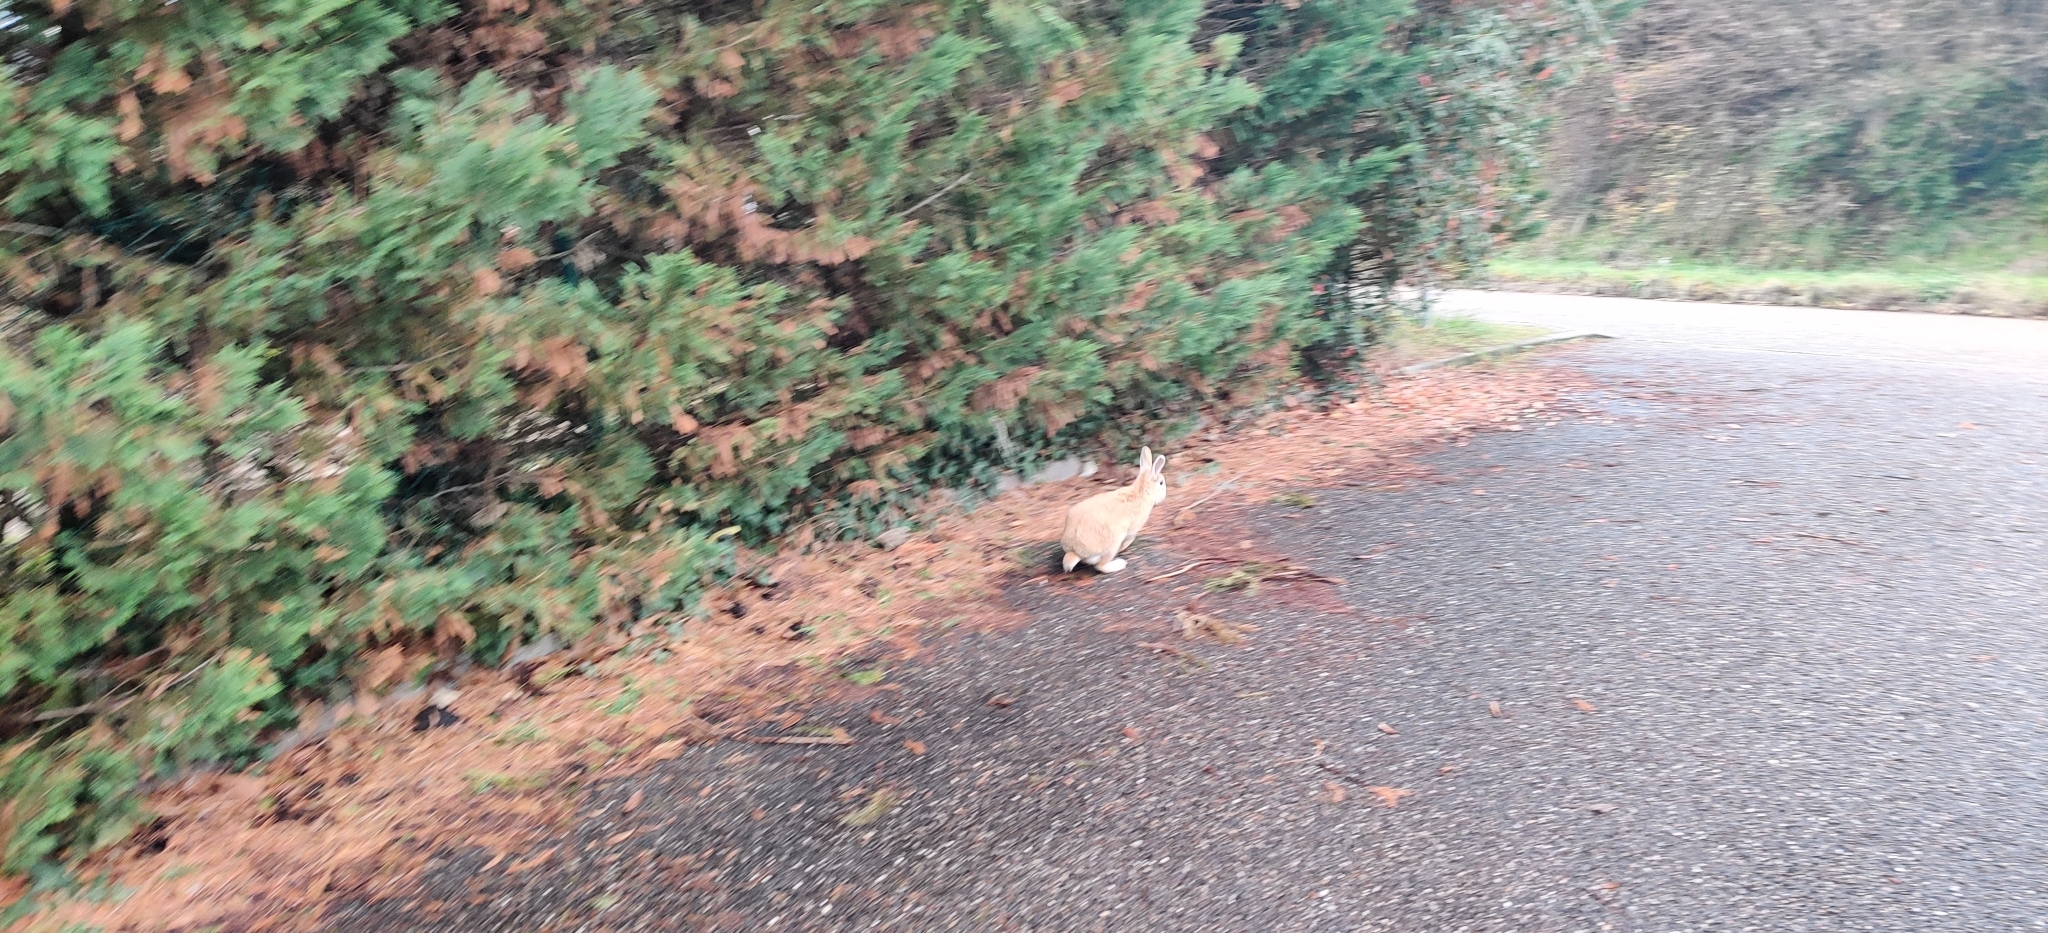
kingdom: Animalia
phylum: Chordata
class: Mammalia
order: Lagomorpha
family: Leporidae
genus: Oryctolagus
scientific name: Oryctolagus cuniculus
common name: European rabbit
